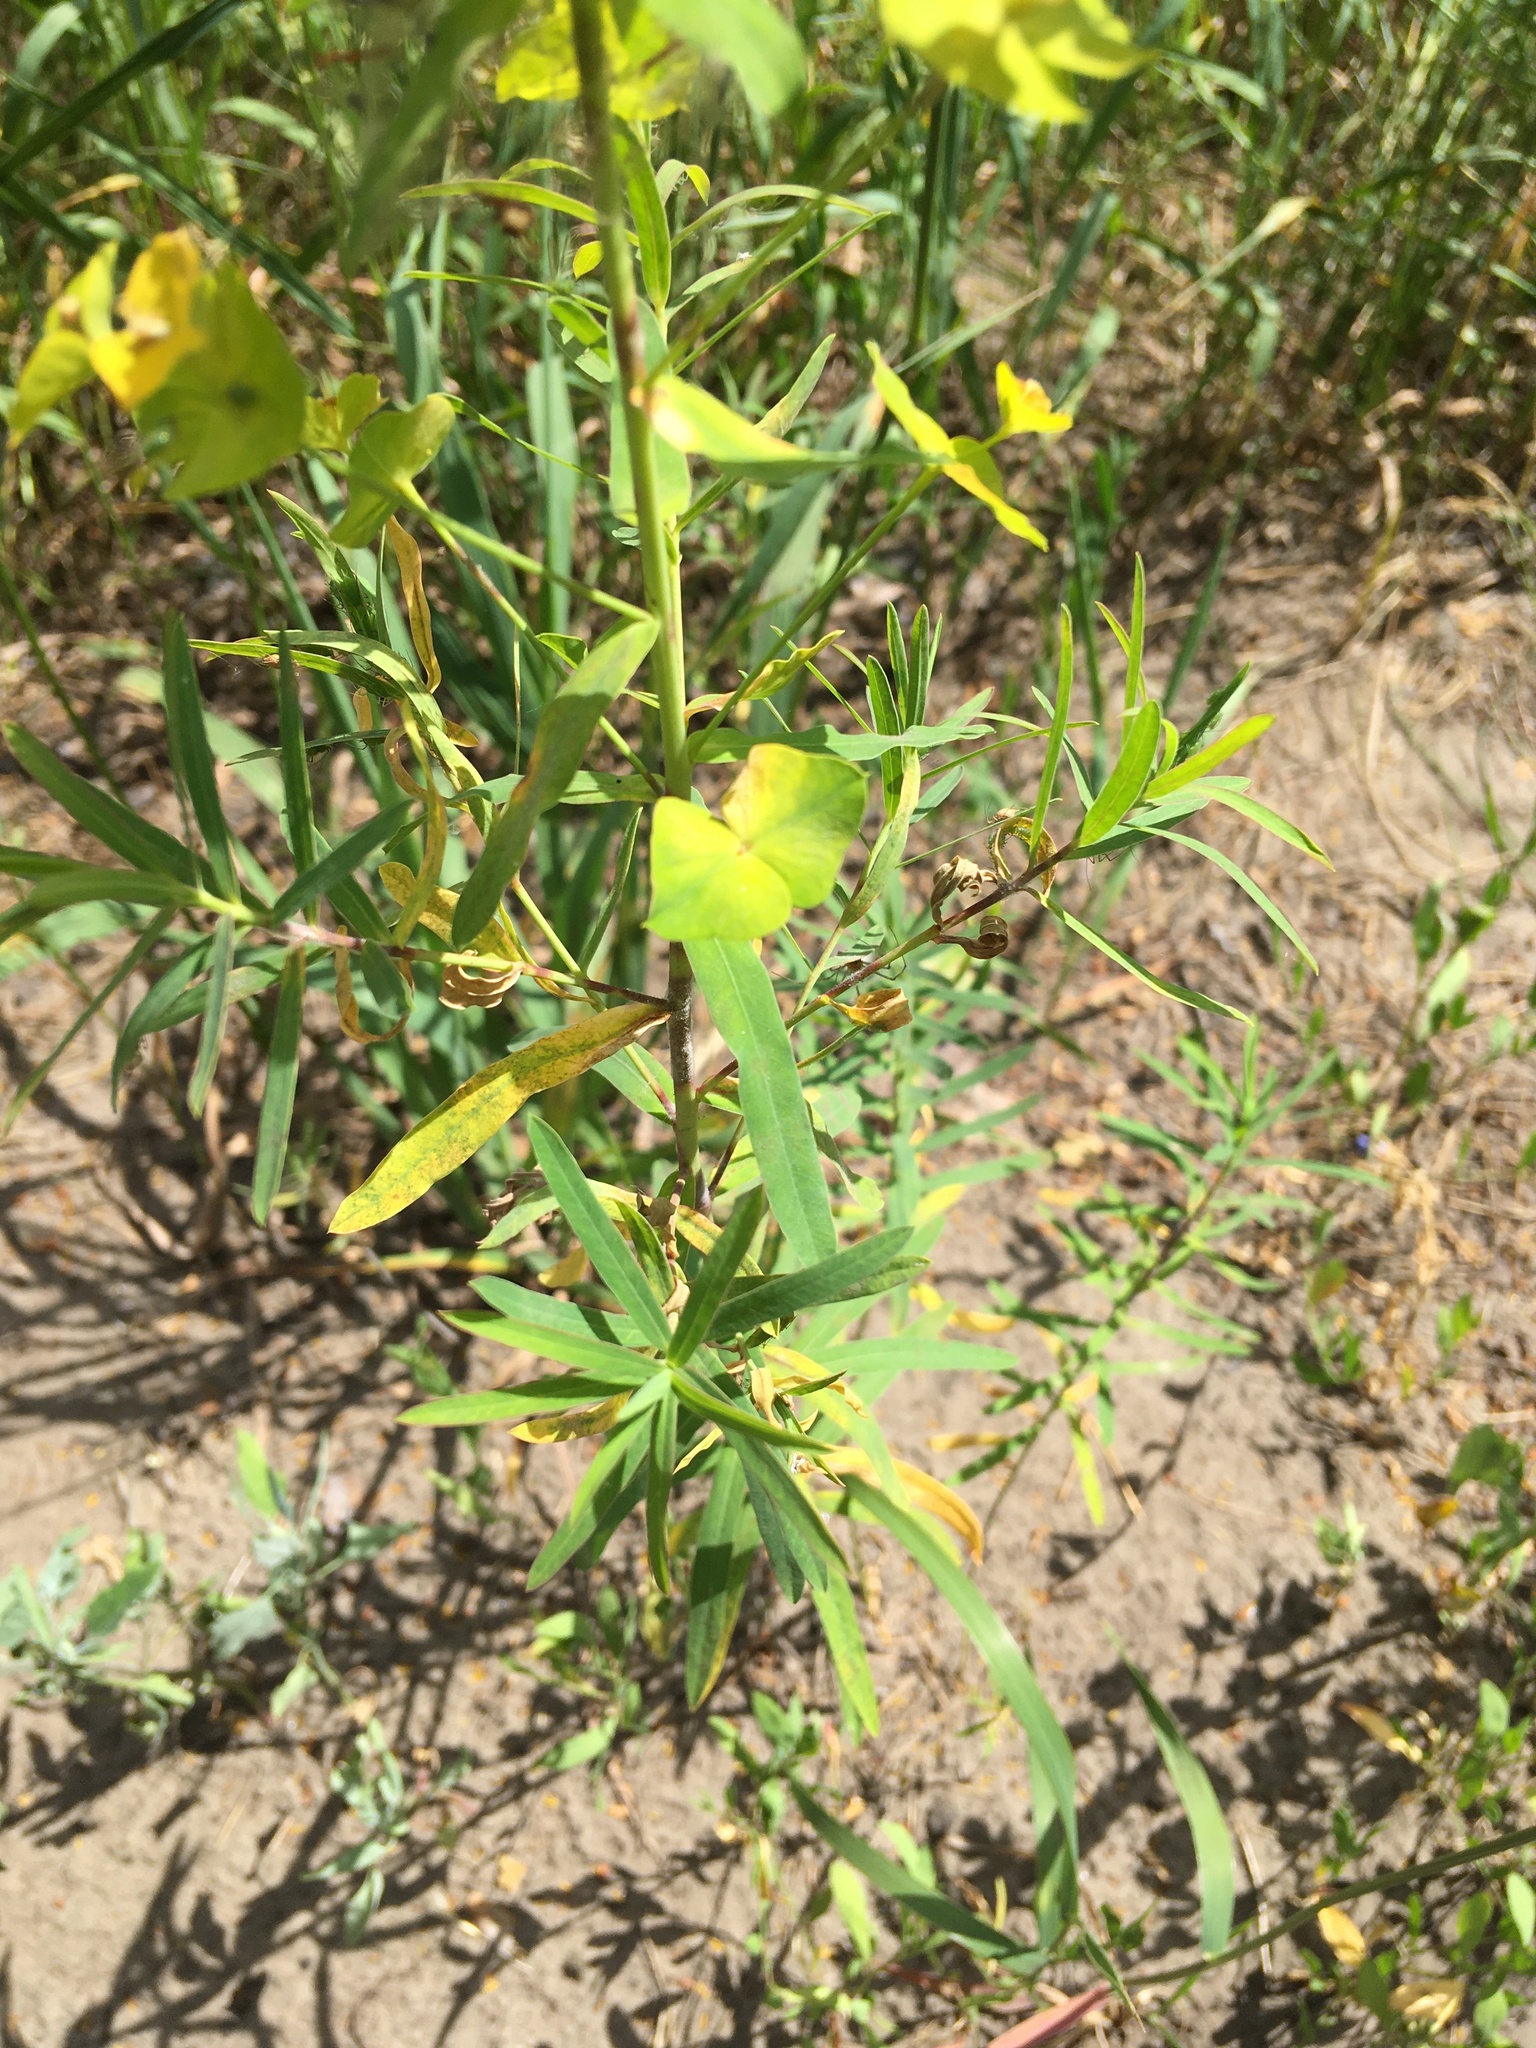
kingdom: Plantae
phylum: Tracheophyta
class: Magnoliopsida
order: Malpighiales
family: Euphorbiaceae
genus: Euphorbia
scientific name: Euphorbia virgata
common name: Leafy spurge
